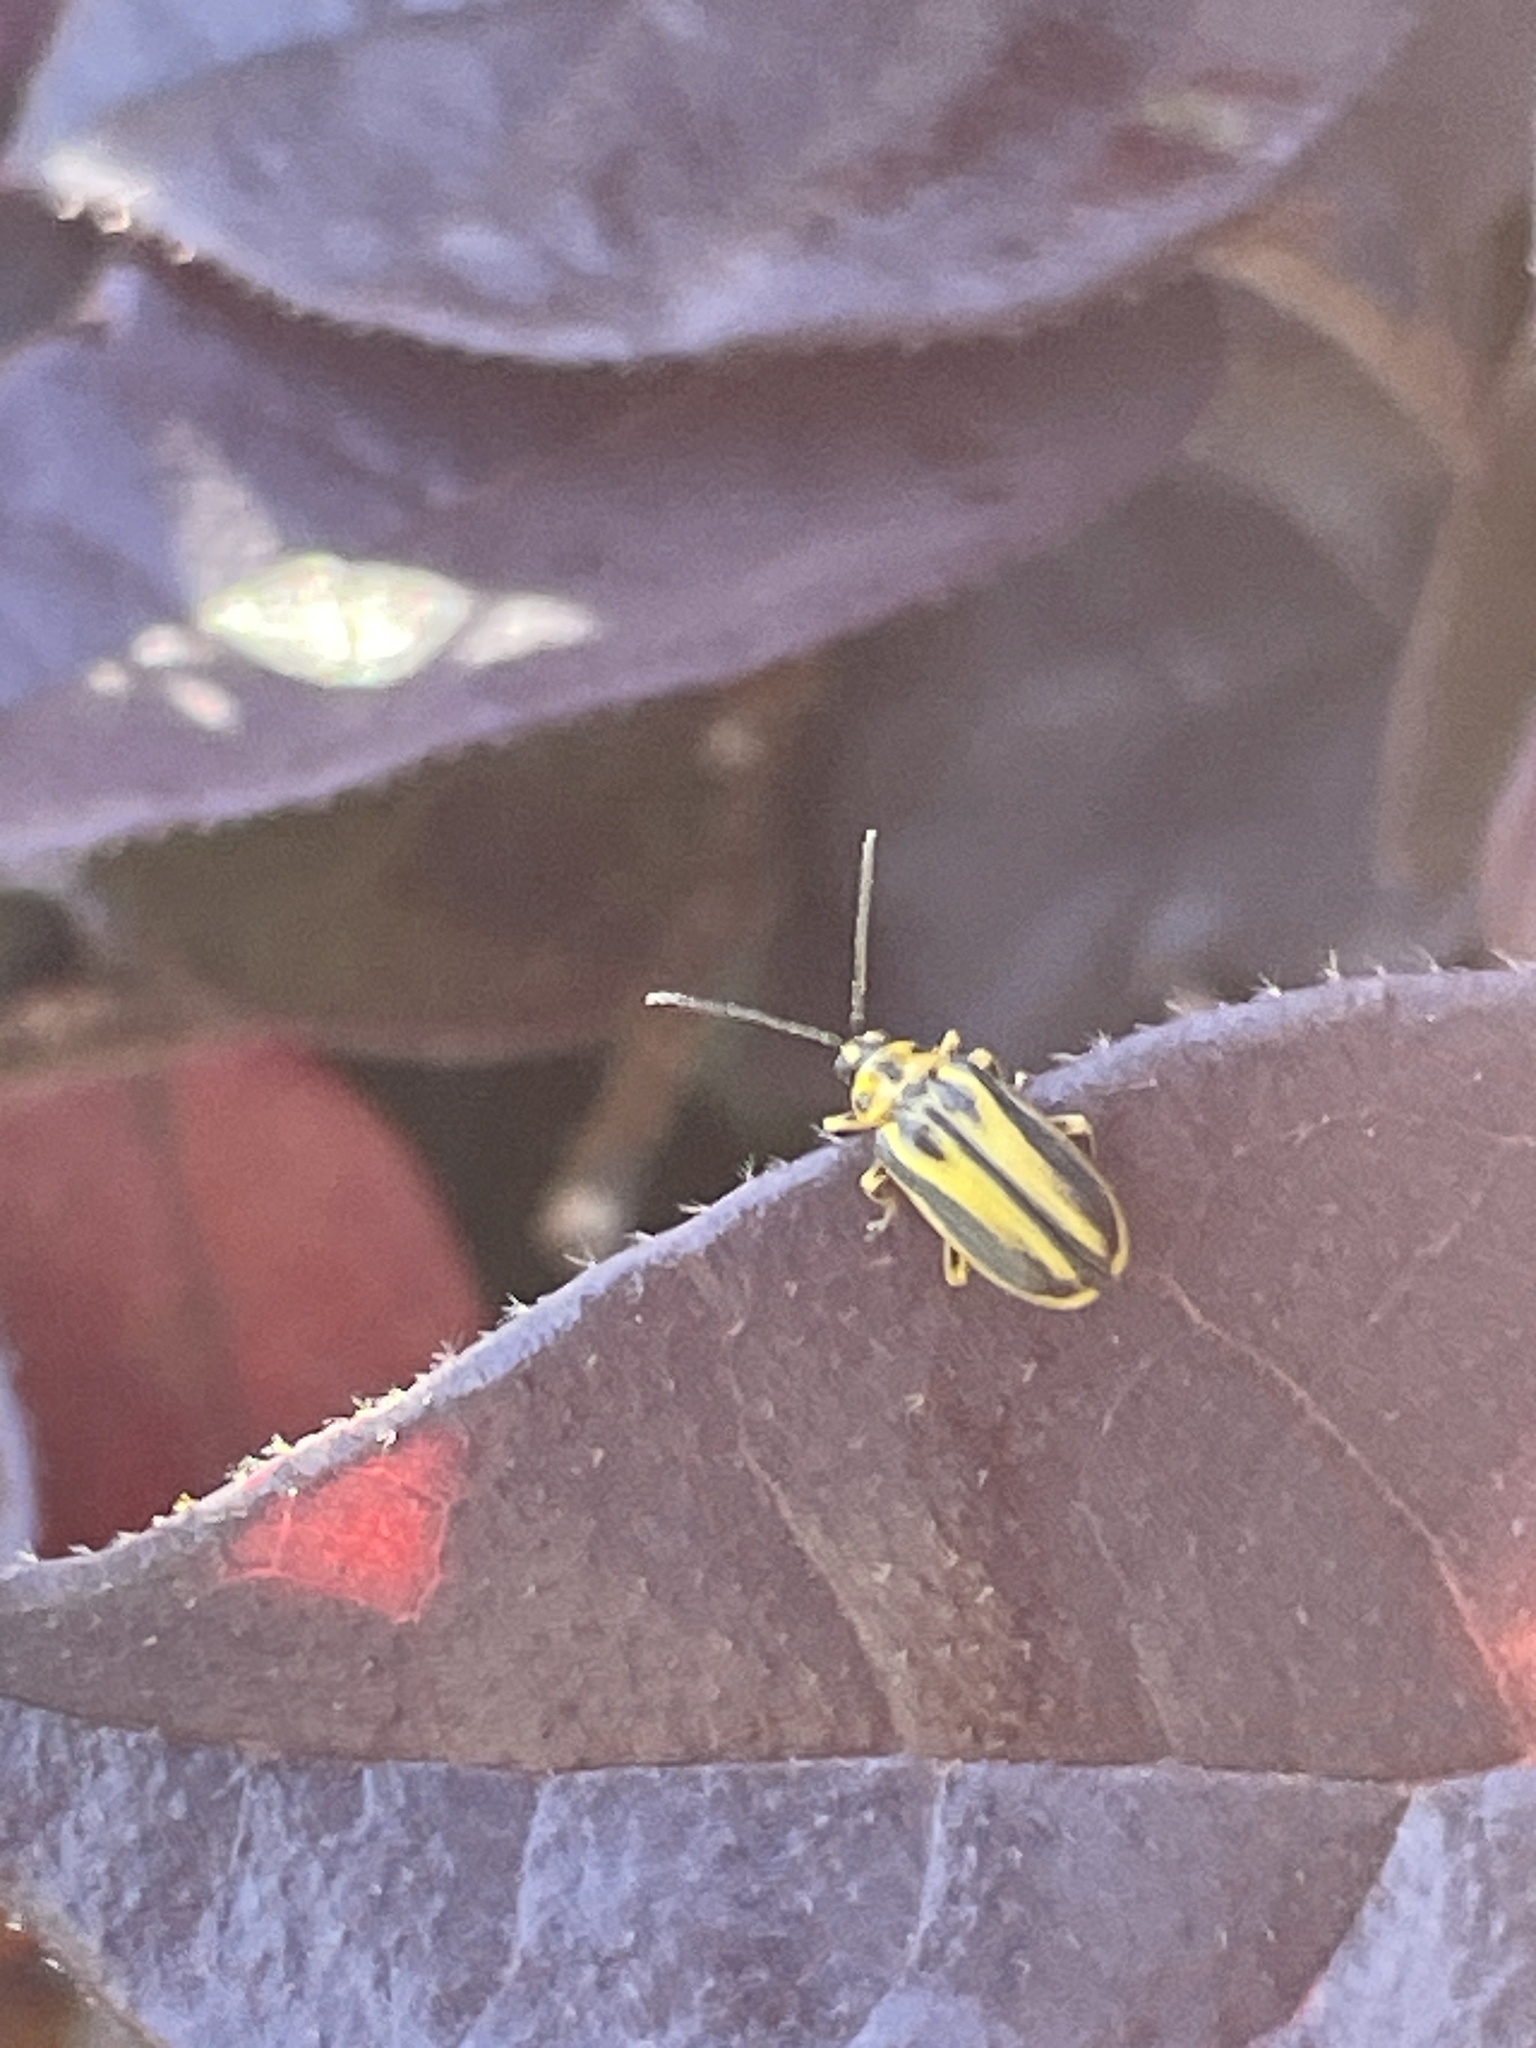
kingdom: Animalia
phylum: Arthropoda
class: Insecta
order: Coleoptera
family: Chrysomelidae
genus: Xanthogaleruca
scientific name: Xanthogaleruca luteola
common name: Elm leaf beetle
